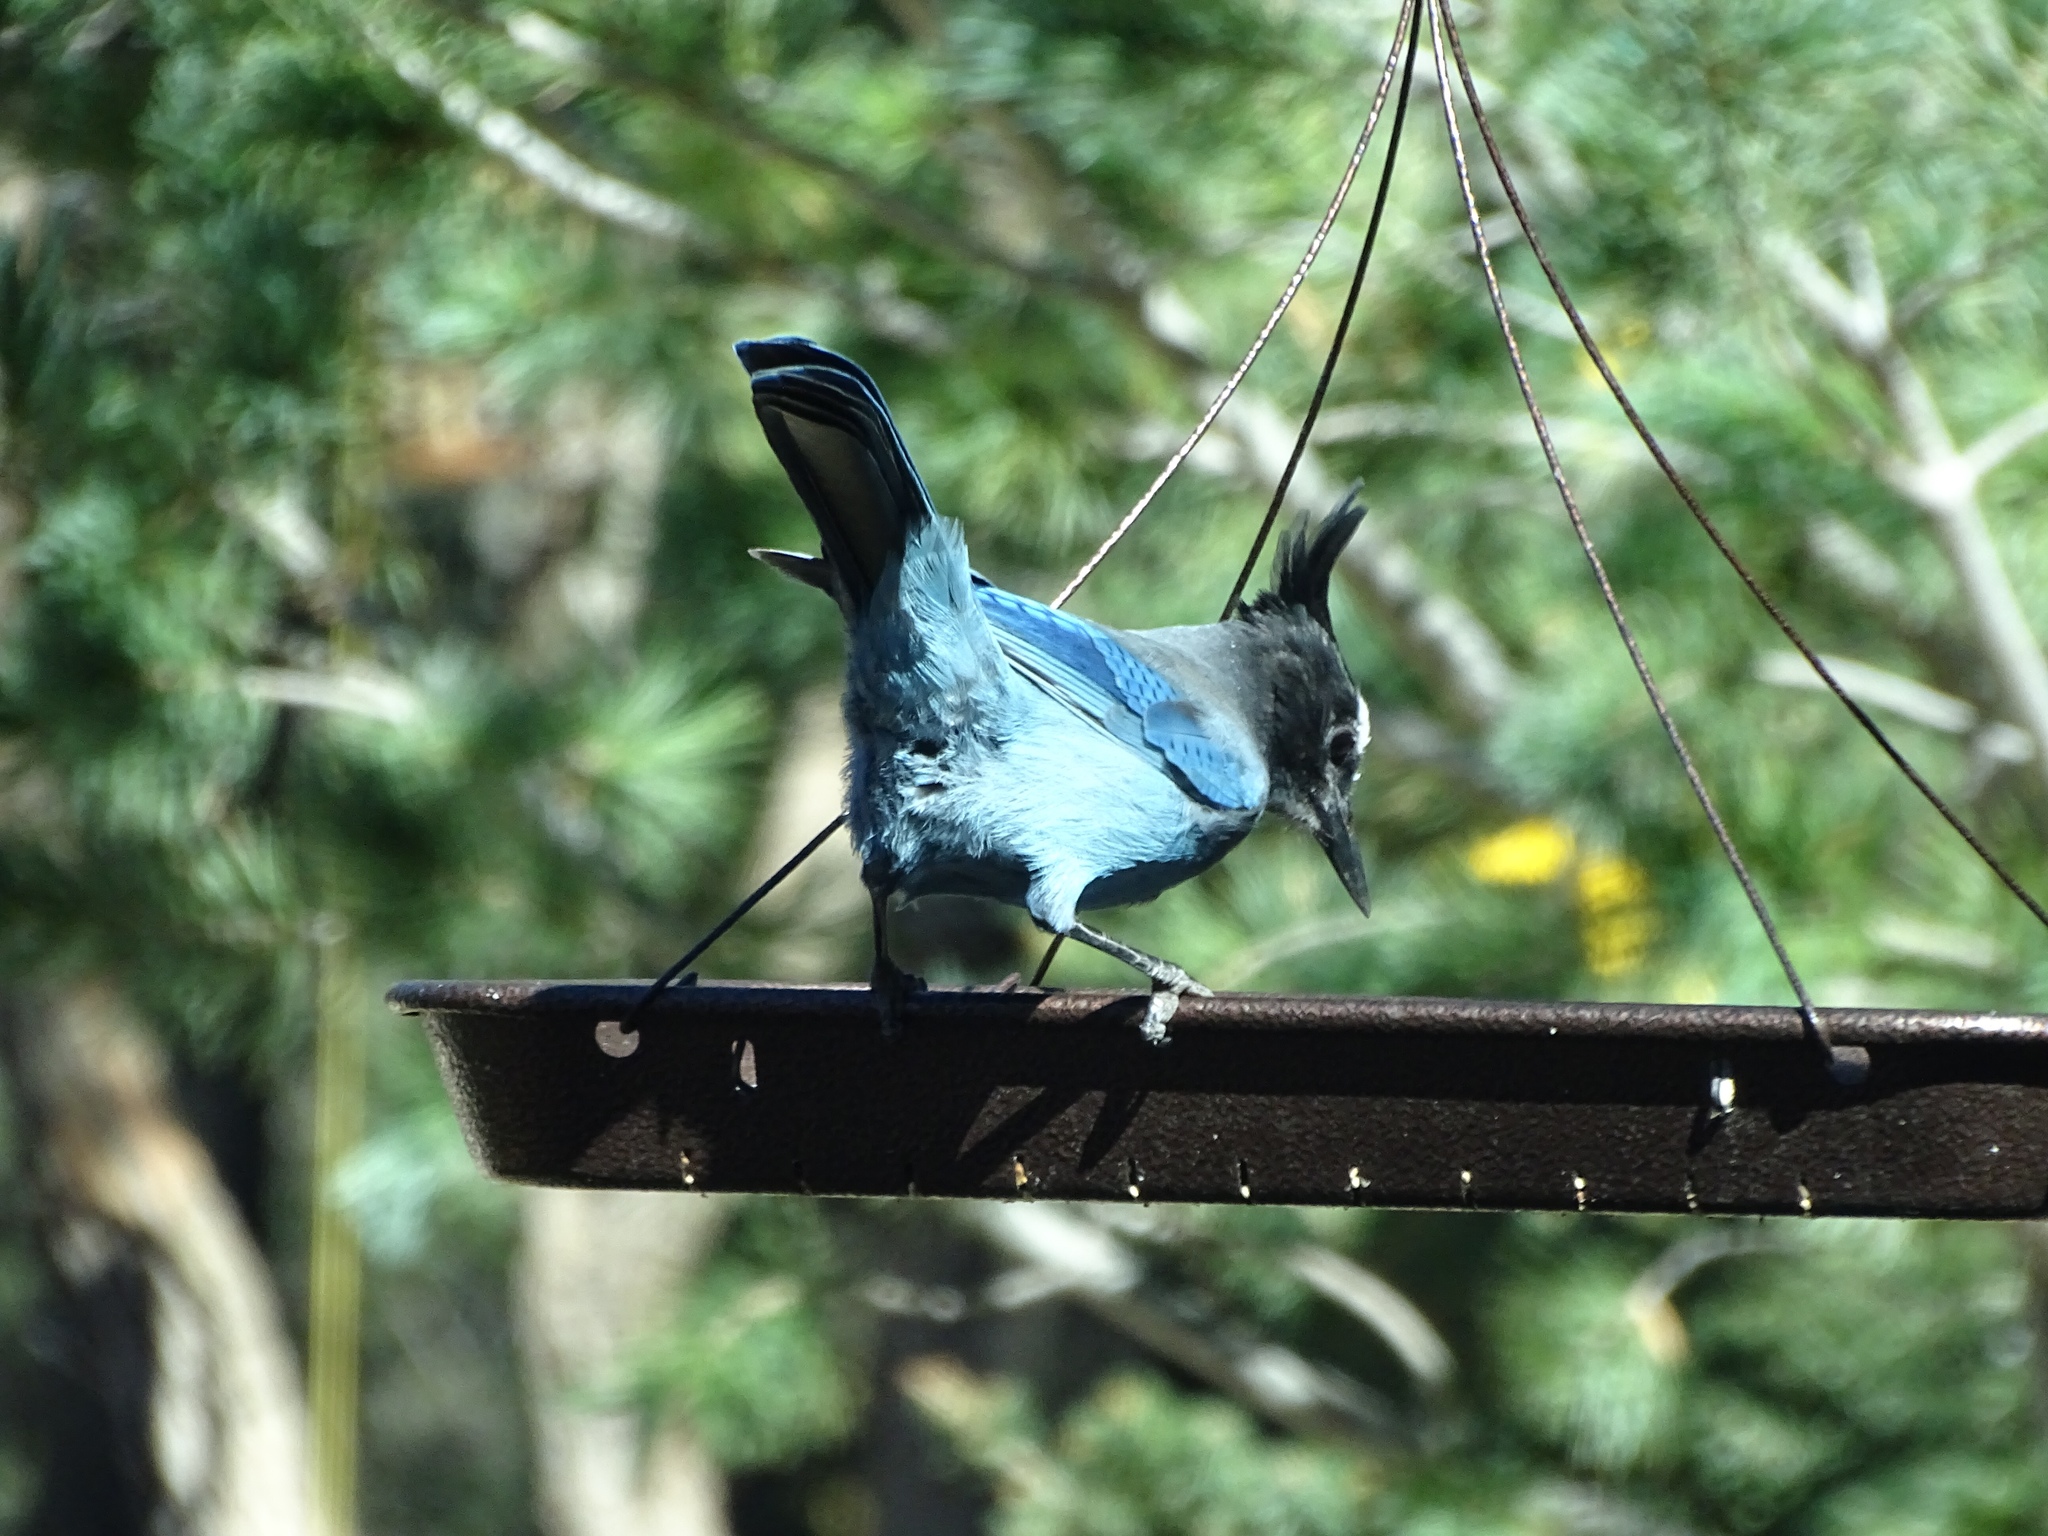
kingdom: Animalia
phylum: Chordata
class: Aves
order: Passeriformes
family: Corvidae
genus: Cyanocitta
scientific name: Cyanocitta stelleri
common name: Steller's jay
